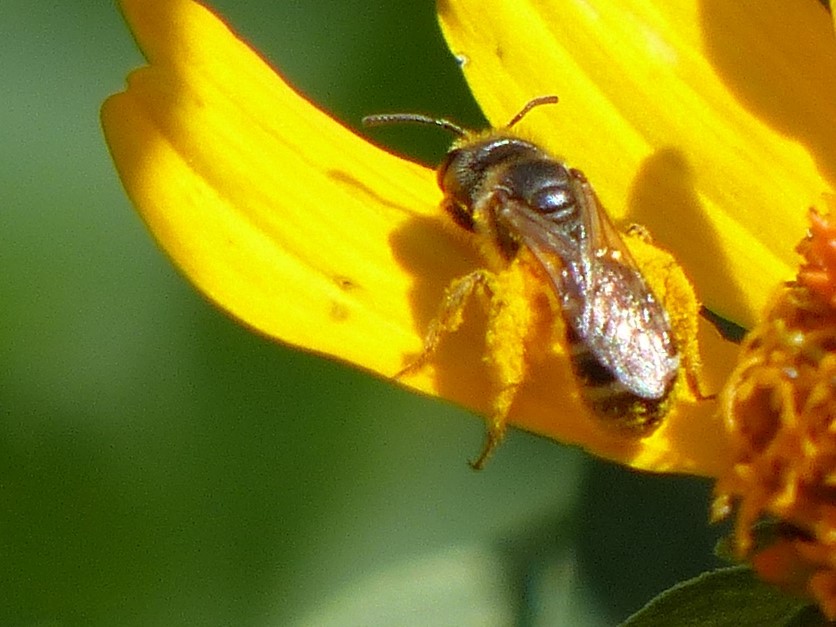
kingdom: Animalia
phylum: Arthropoda
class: Insecta
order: Hymenoptera
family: Halictidae
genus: Halictus
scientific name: Halictus ligatus
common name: Ligated furrow bee
